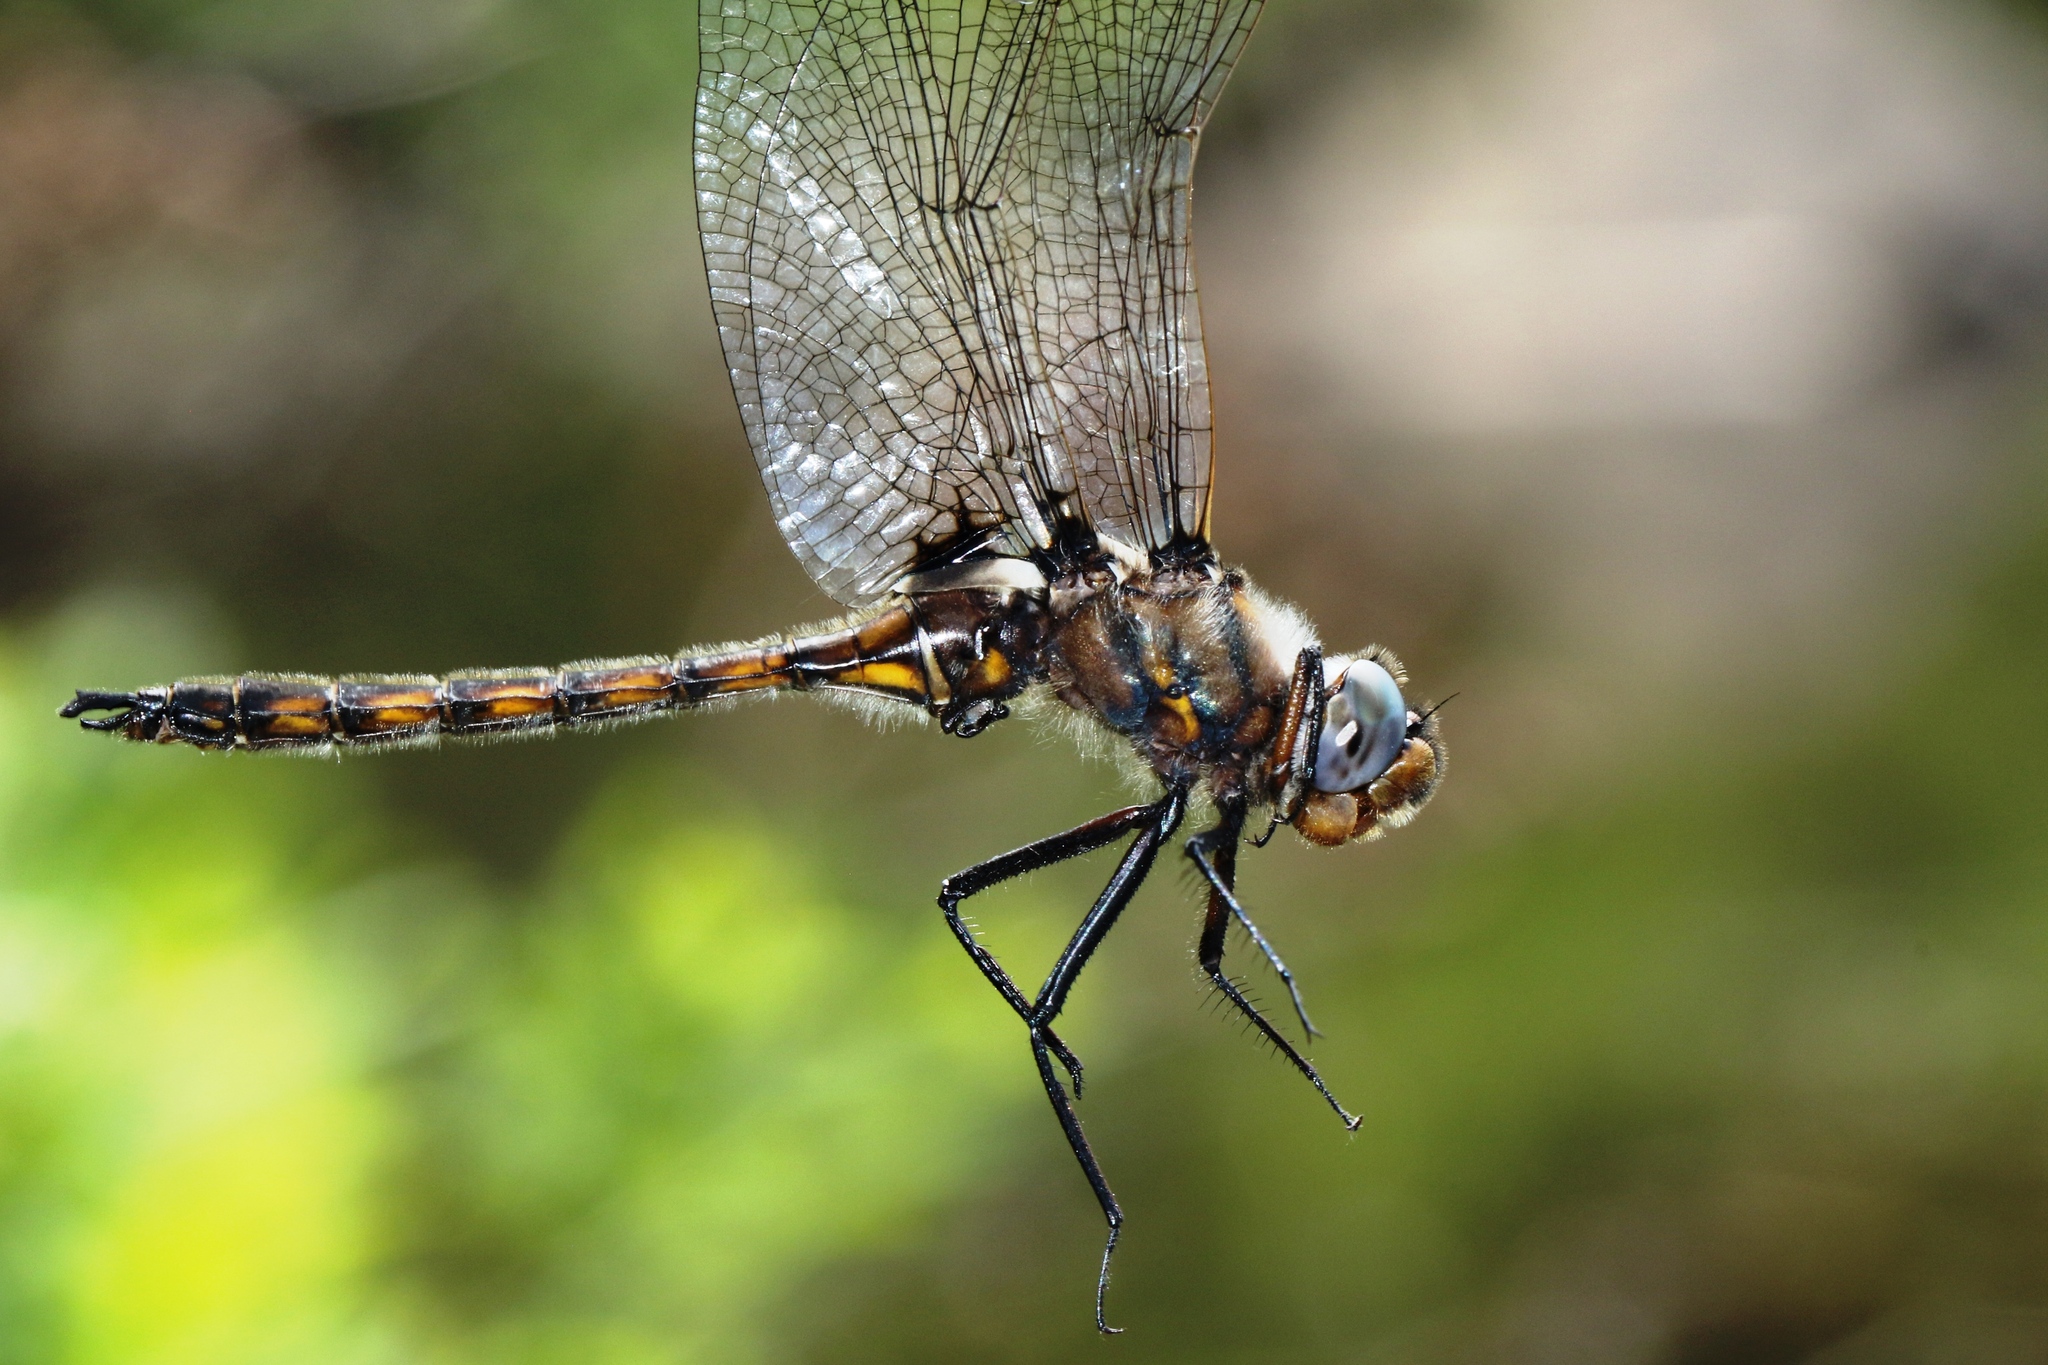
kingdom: Animalia
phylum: Arthropoda
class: Insecta
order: Odonata
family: Corduliidae
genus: Epitheca
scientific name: Epitheca canis
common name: Beaverpond baskettail
